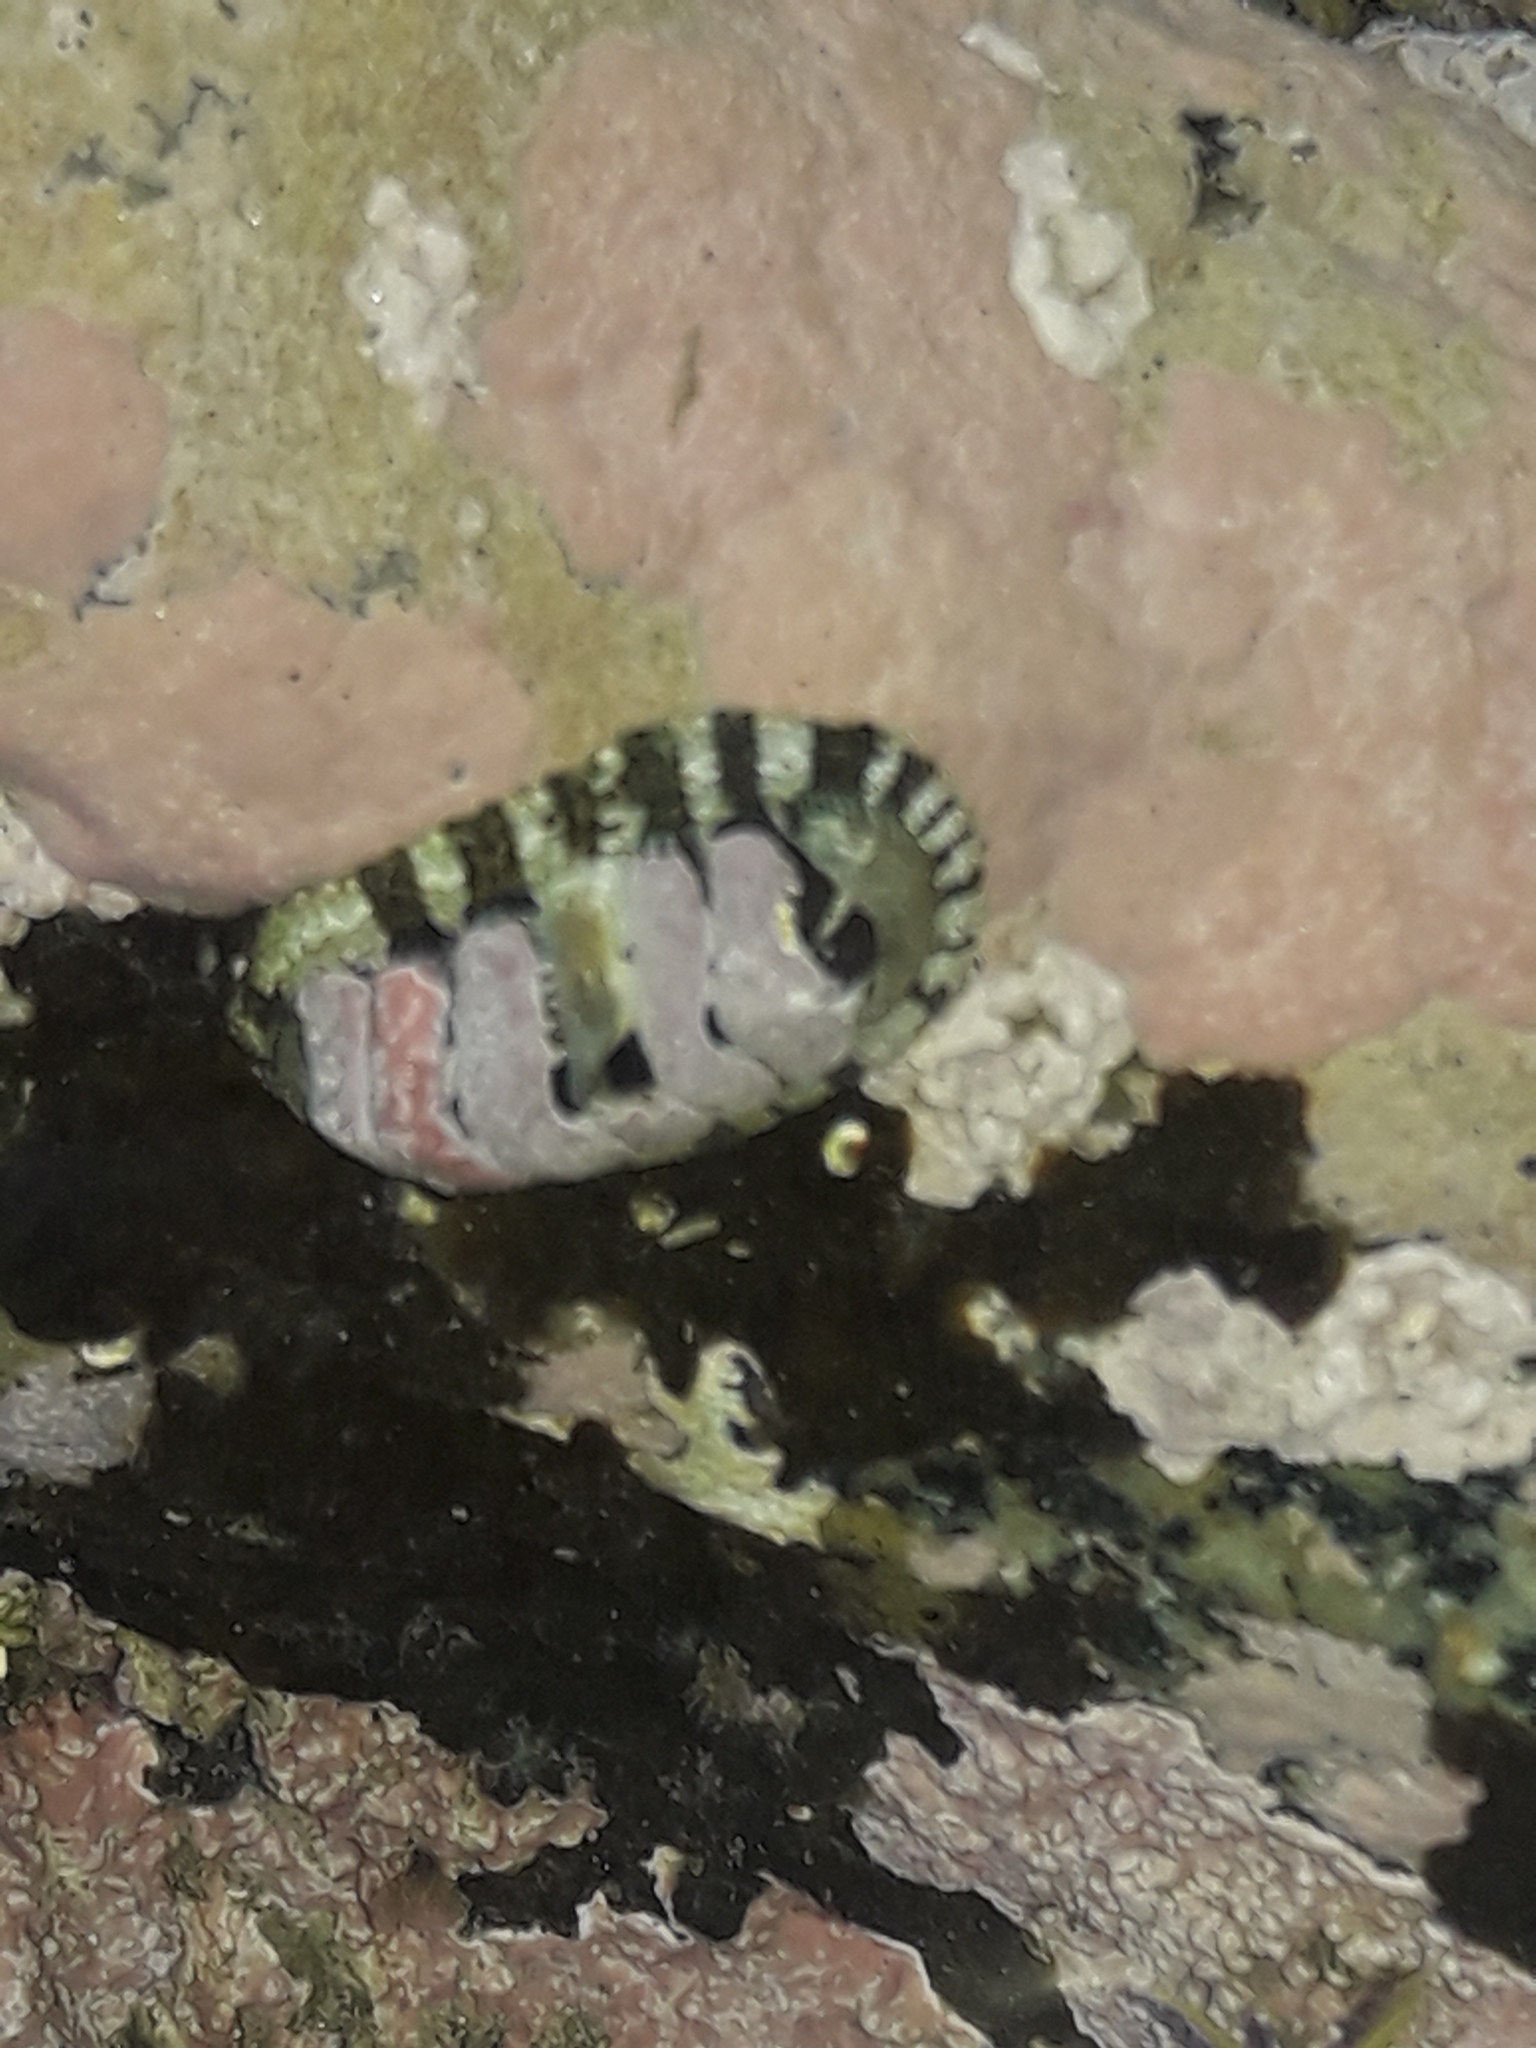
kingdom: Animalia
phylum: Mollusca
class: Polyplacophora
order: Chitonida
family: Chitonidae
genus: Sypharochiton
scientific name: Sypharochiton pelliserpentis
